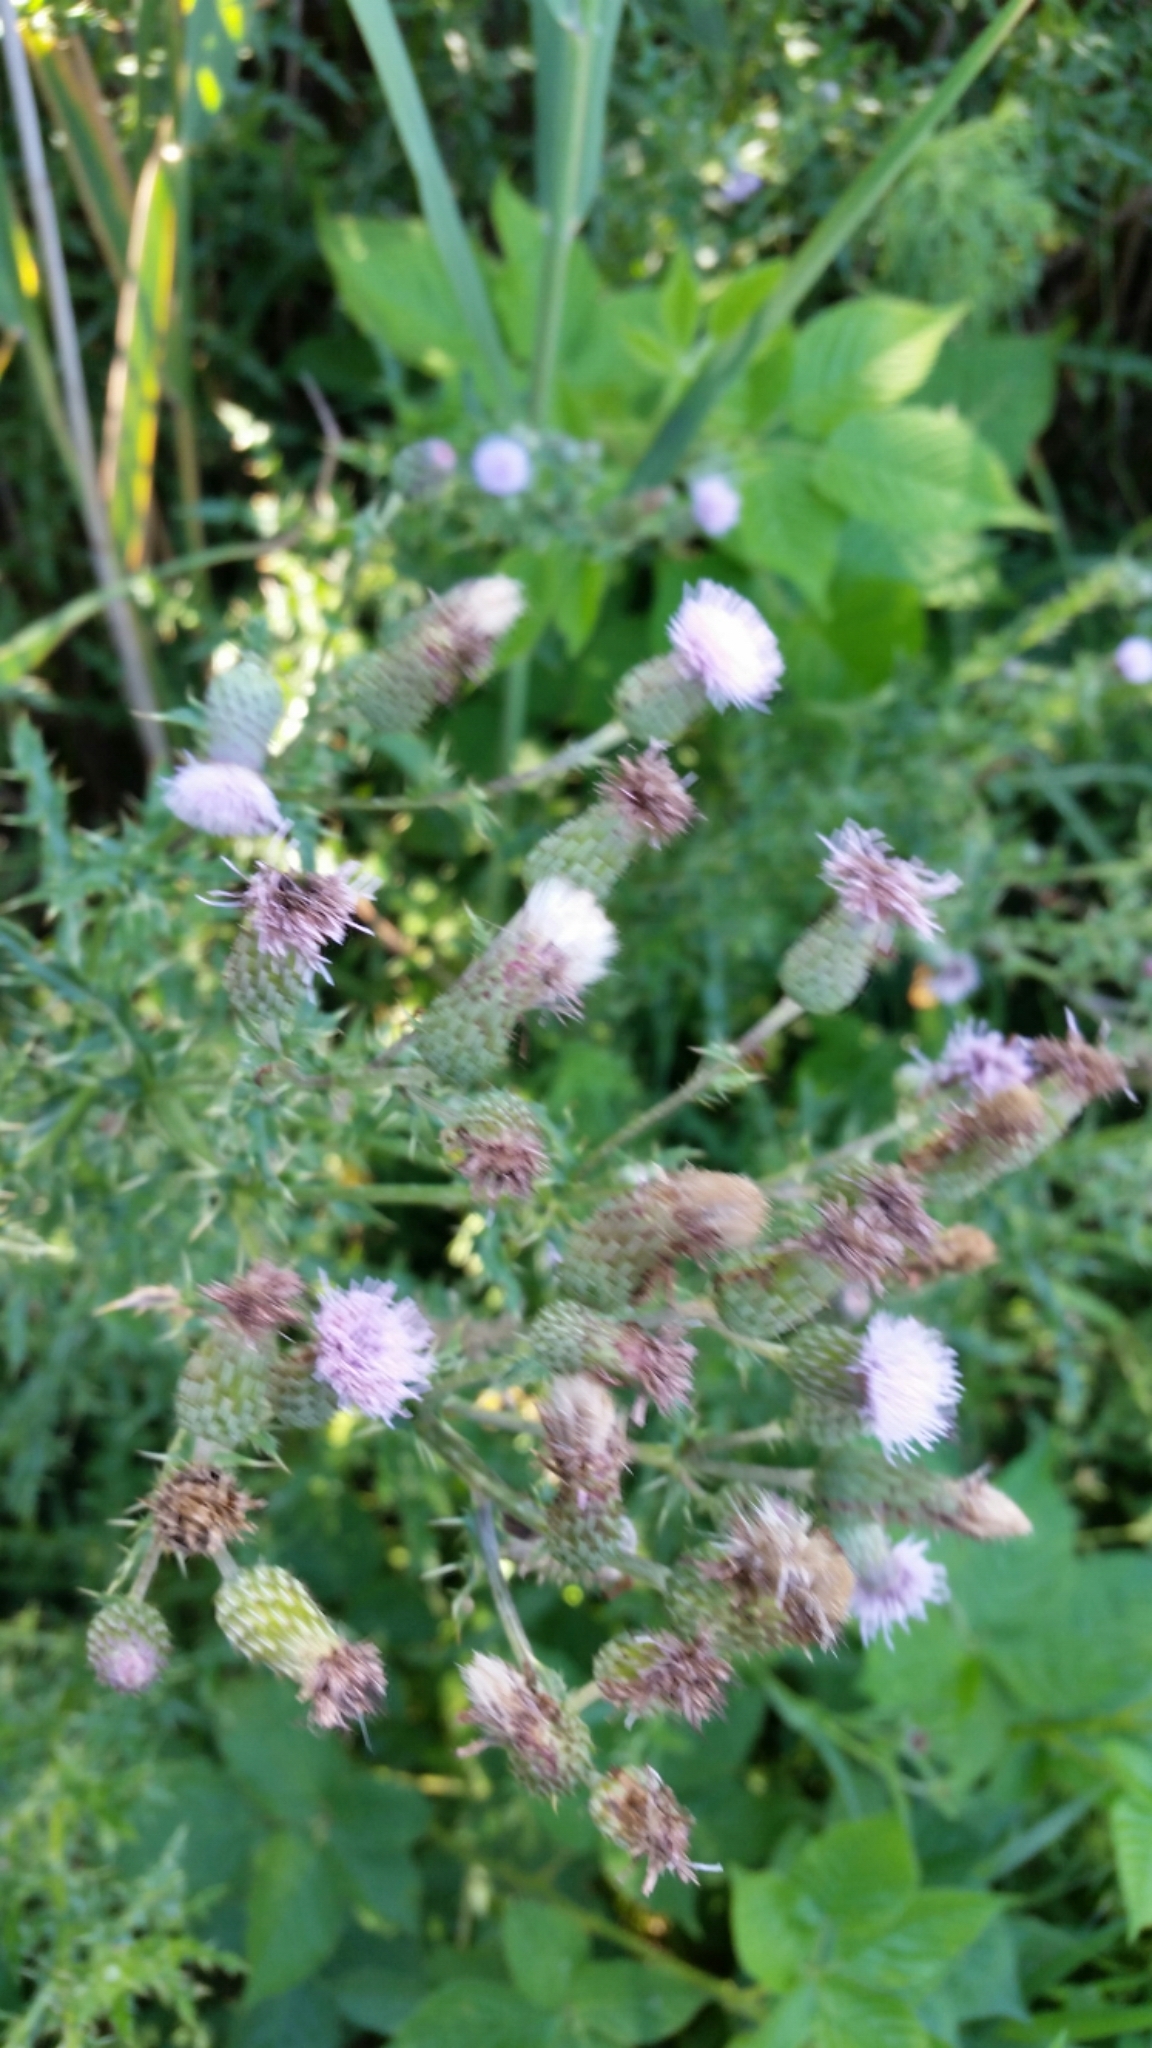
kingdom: Plantae
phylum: Tracheophyta
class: Magnoliopsida
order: Asterales
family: Asteraceae
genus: Cirsium
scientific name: Cirsium arvense
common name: Creeping thistle
